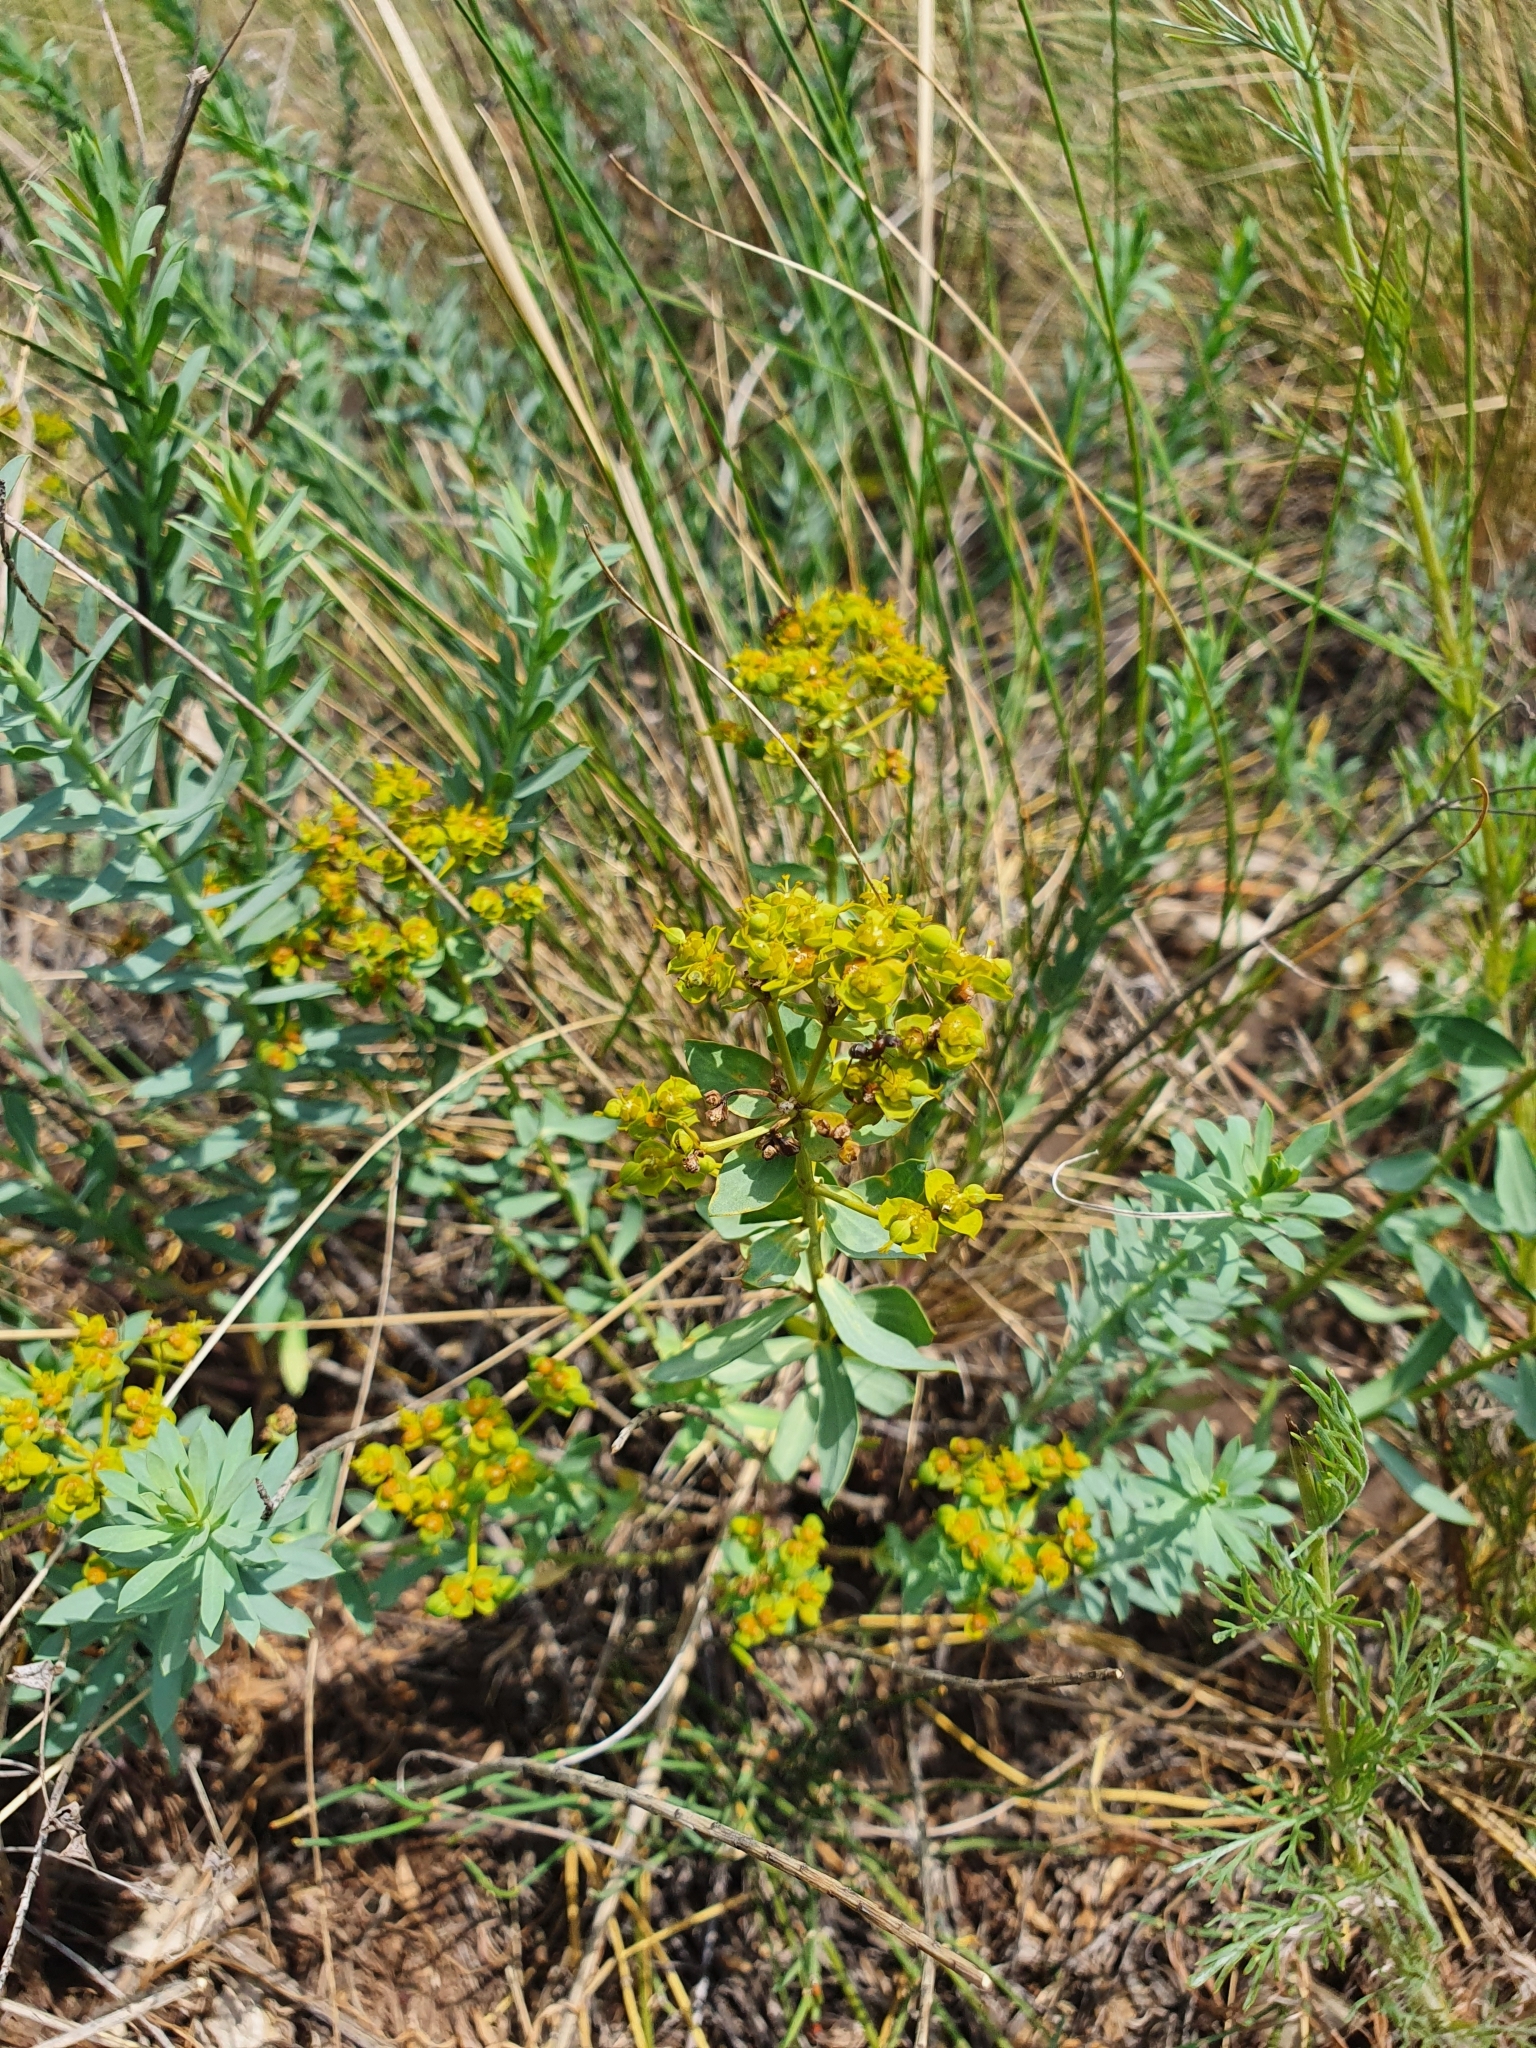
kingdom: Plantae
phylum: Tracheophyta
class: Magnoliopsida
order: Malpighiales
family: Euphorbiaceae
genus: Euphorbia
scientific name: Euphorbia seguieriana
